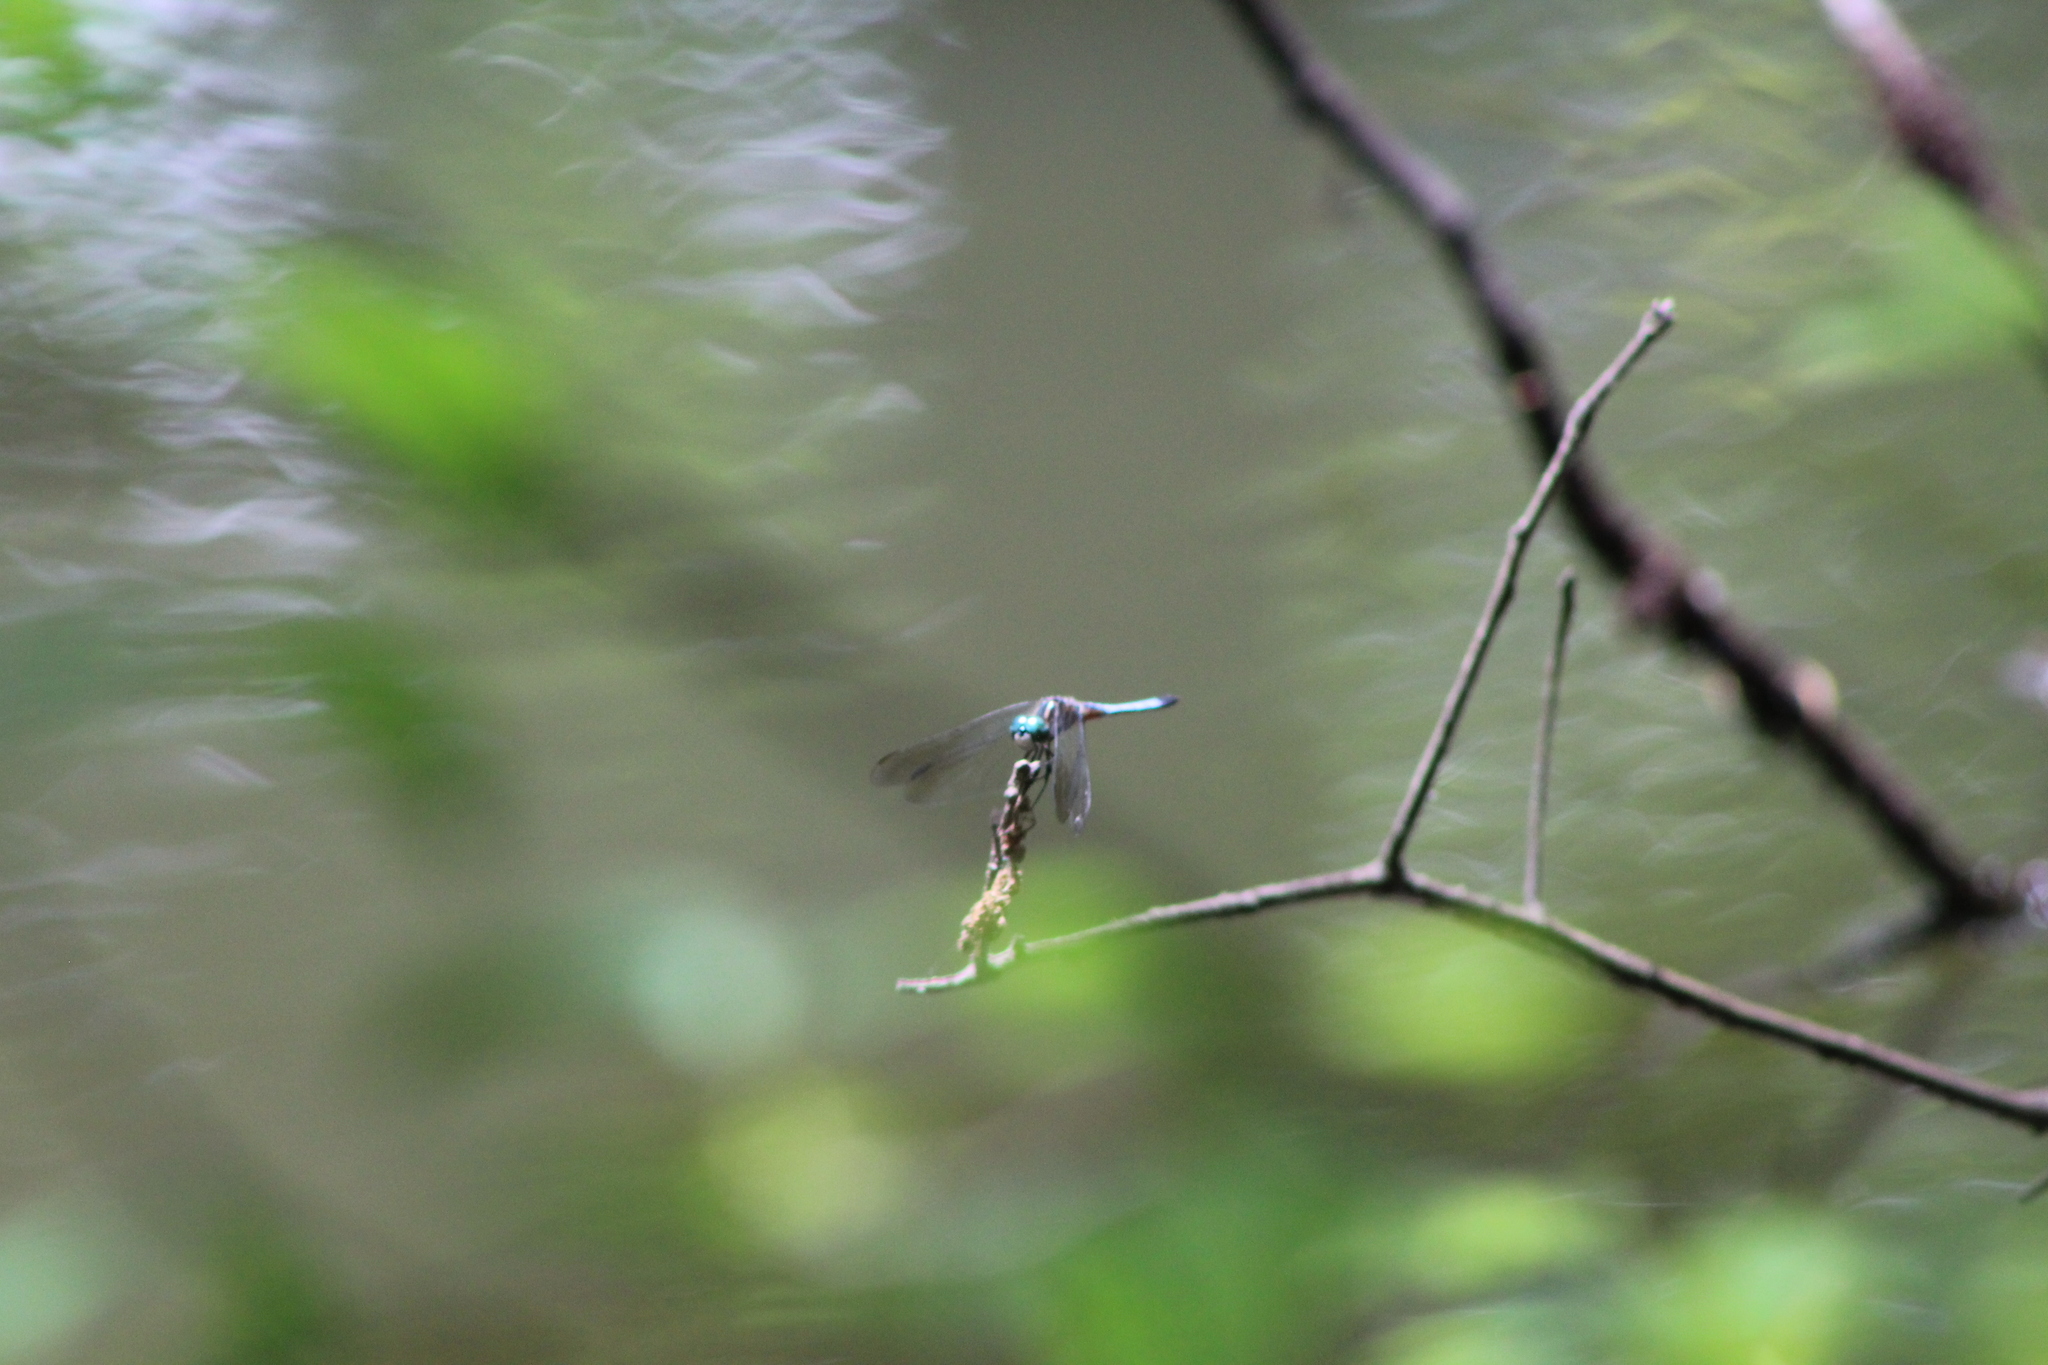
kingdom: Animalia
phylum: Arthropoda
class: Insecta
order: Odonata
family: Libellulidae
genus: Pachydiplax
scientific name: Pachydiplax longipennis
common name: Blue dasher
